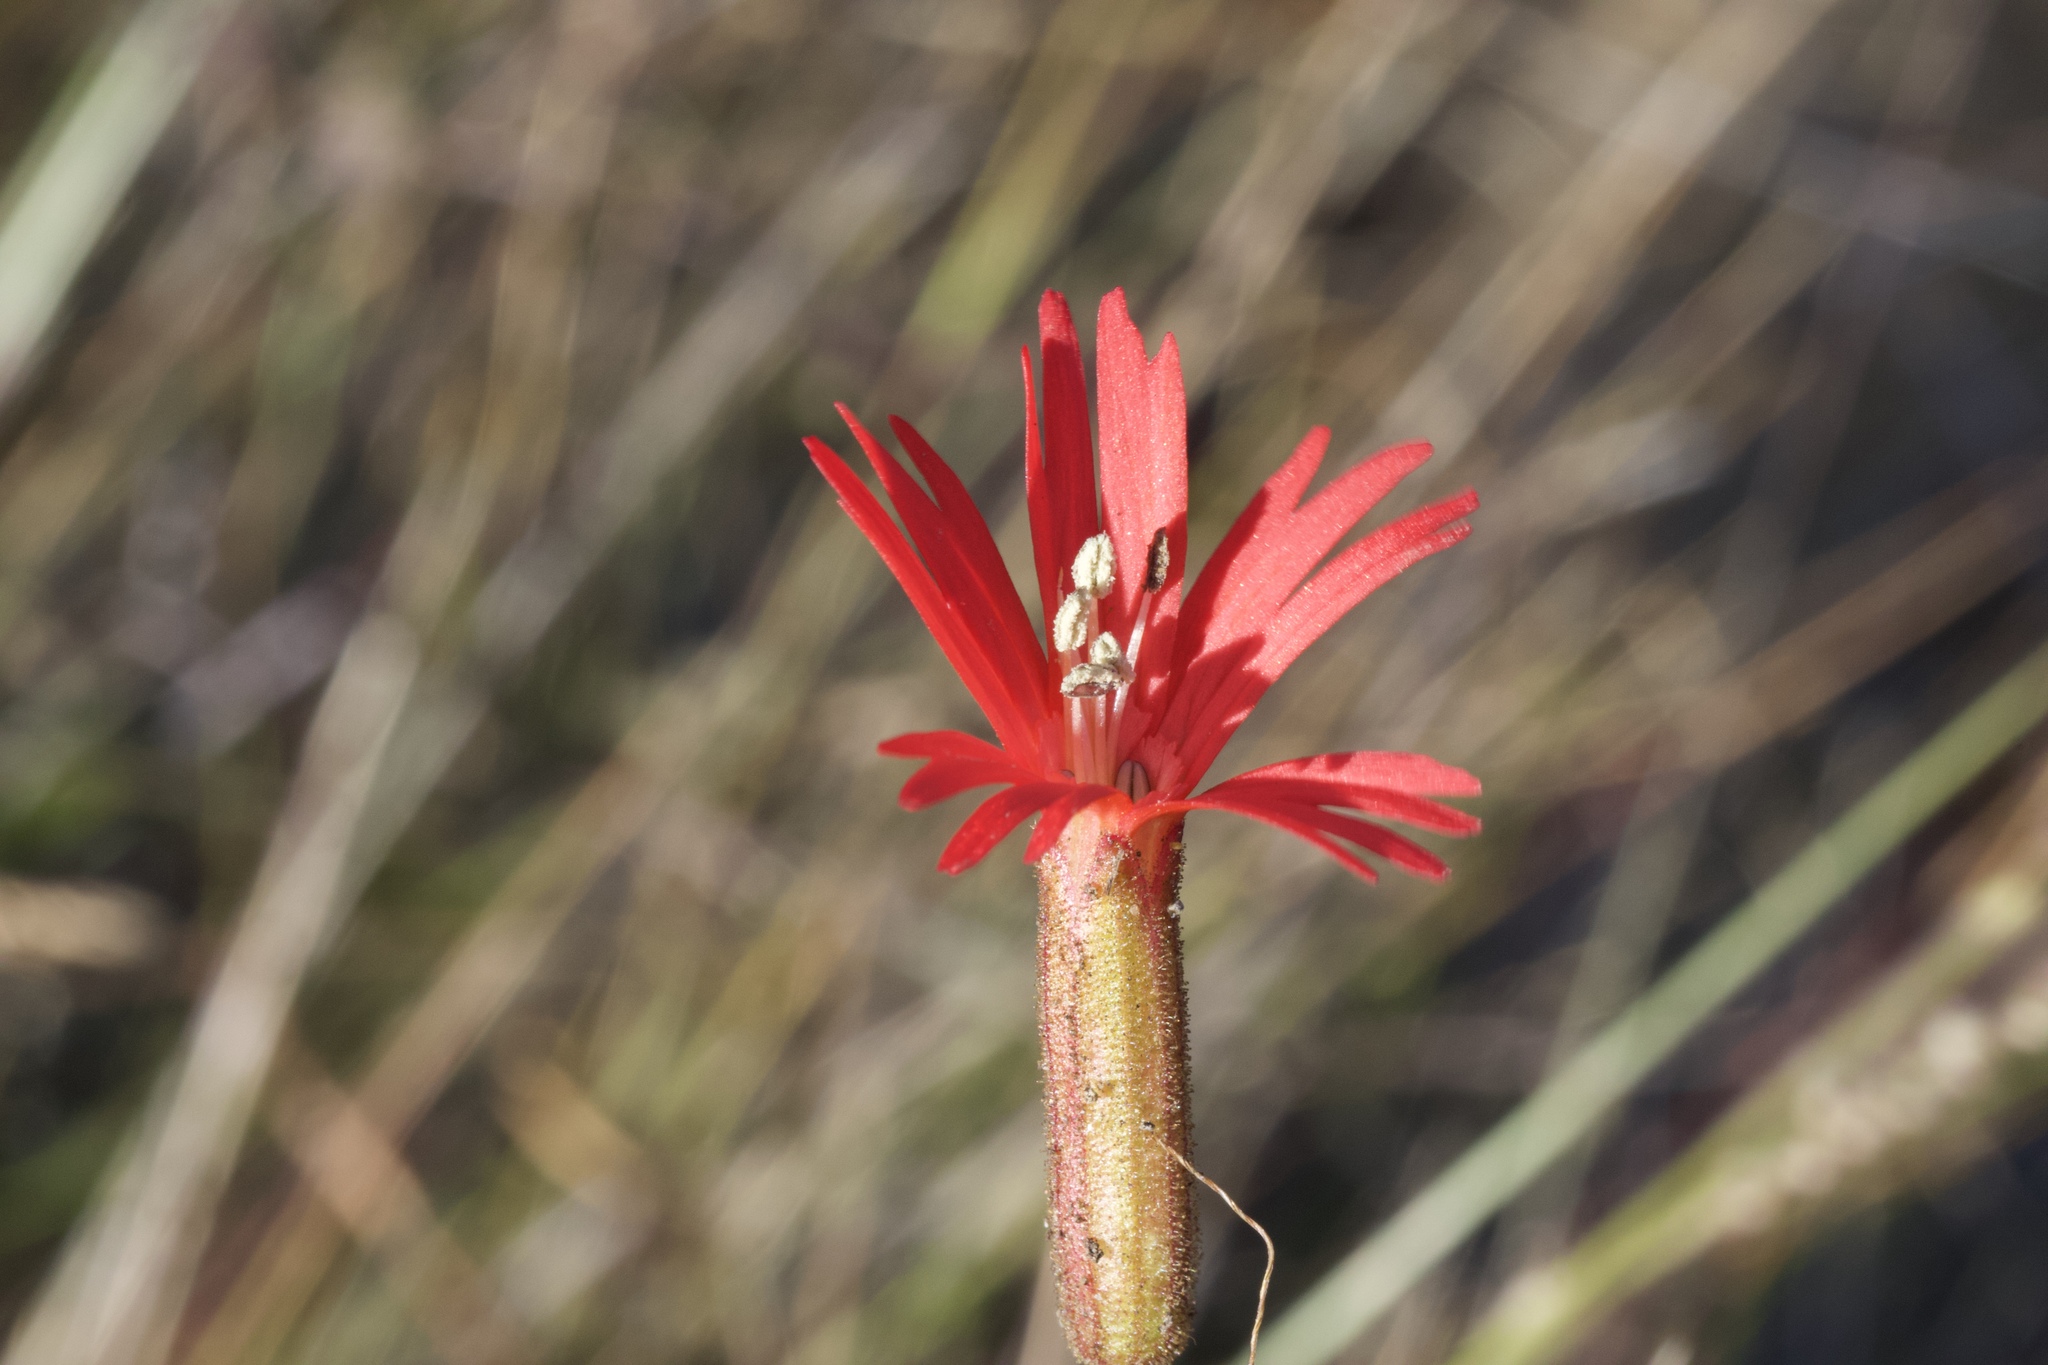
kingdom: Plantae
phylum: Tracheophyta
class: Magnoliopsida
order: Caryophyllales
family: Caryophyllaceae
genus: Silene
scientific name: Silene laciniata
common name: Indian-pink
